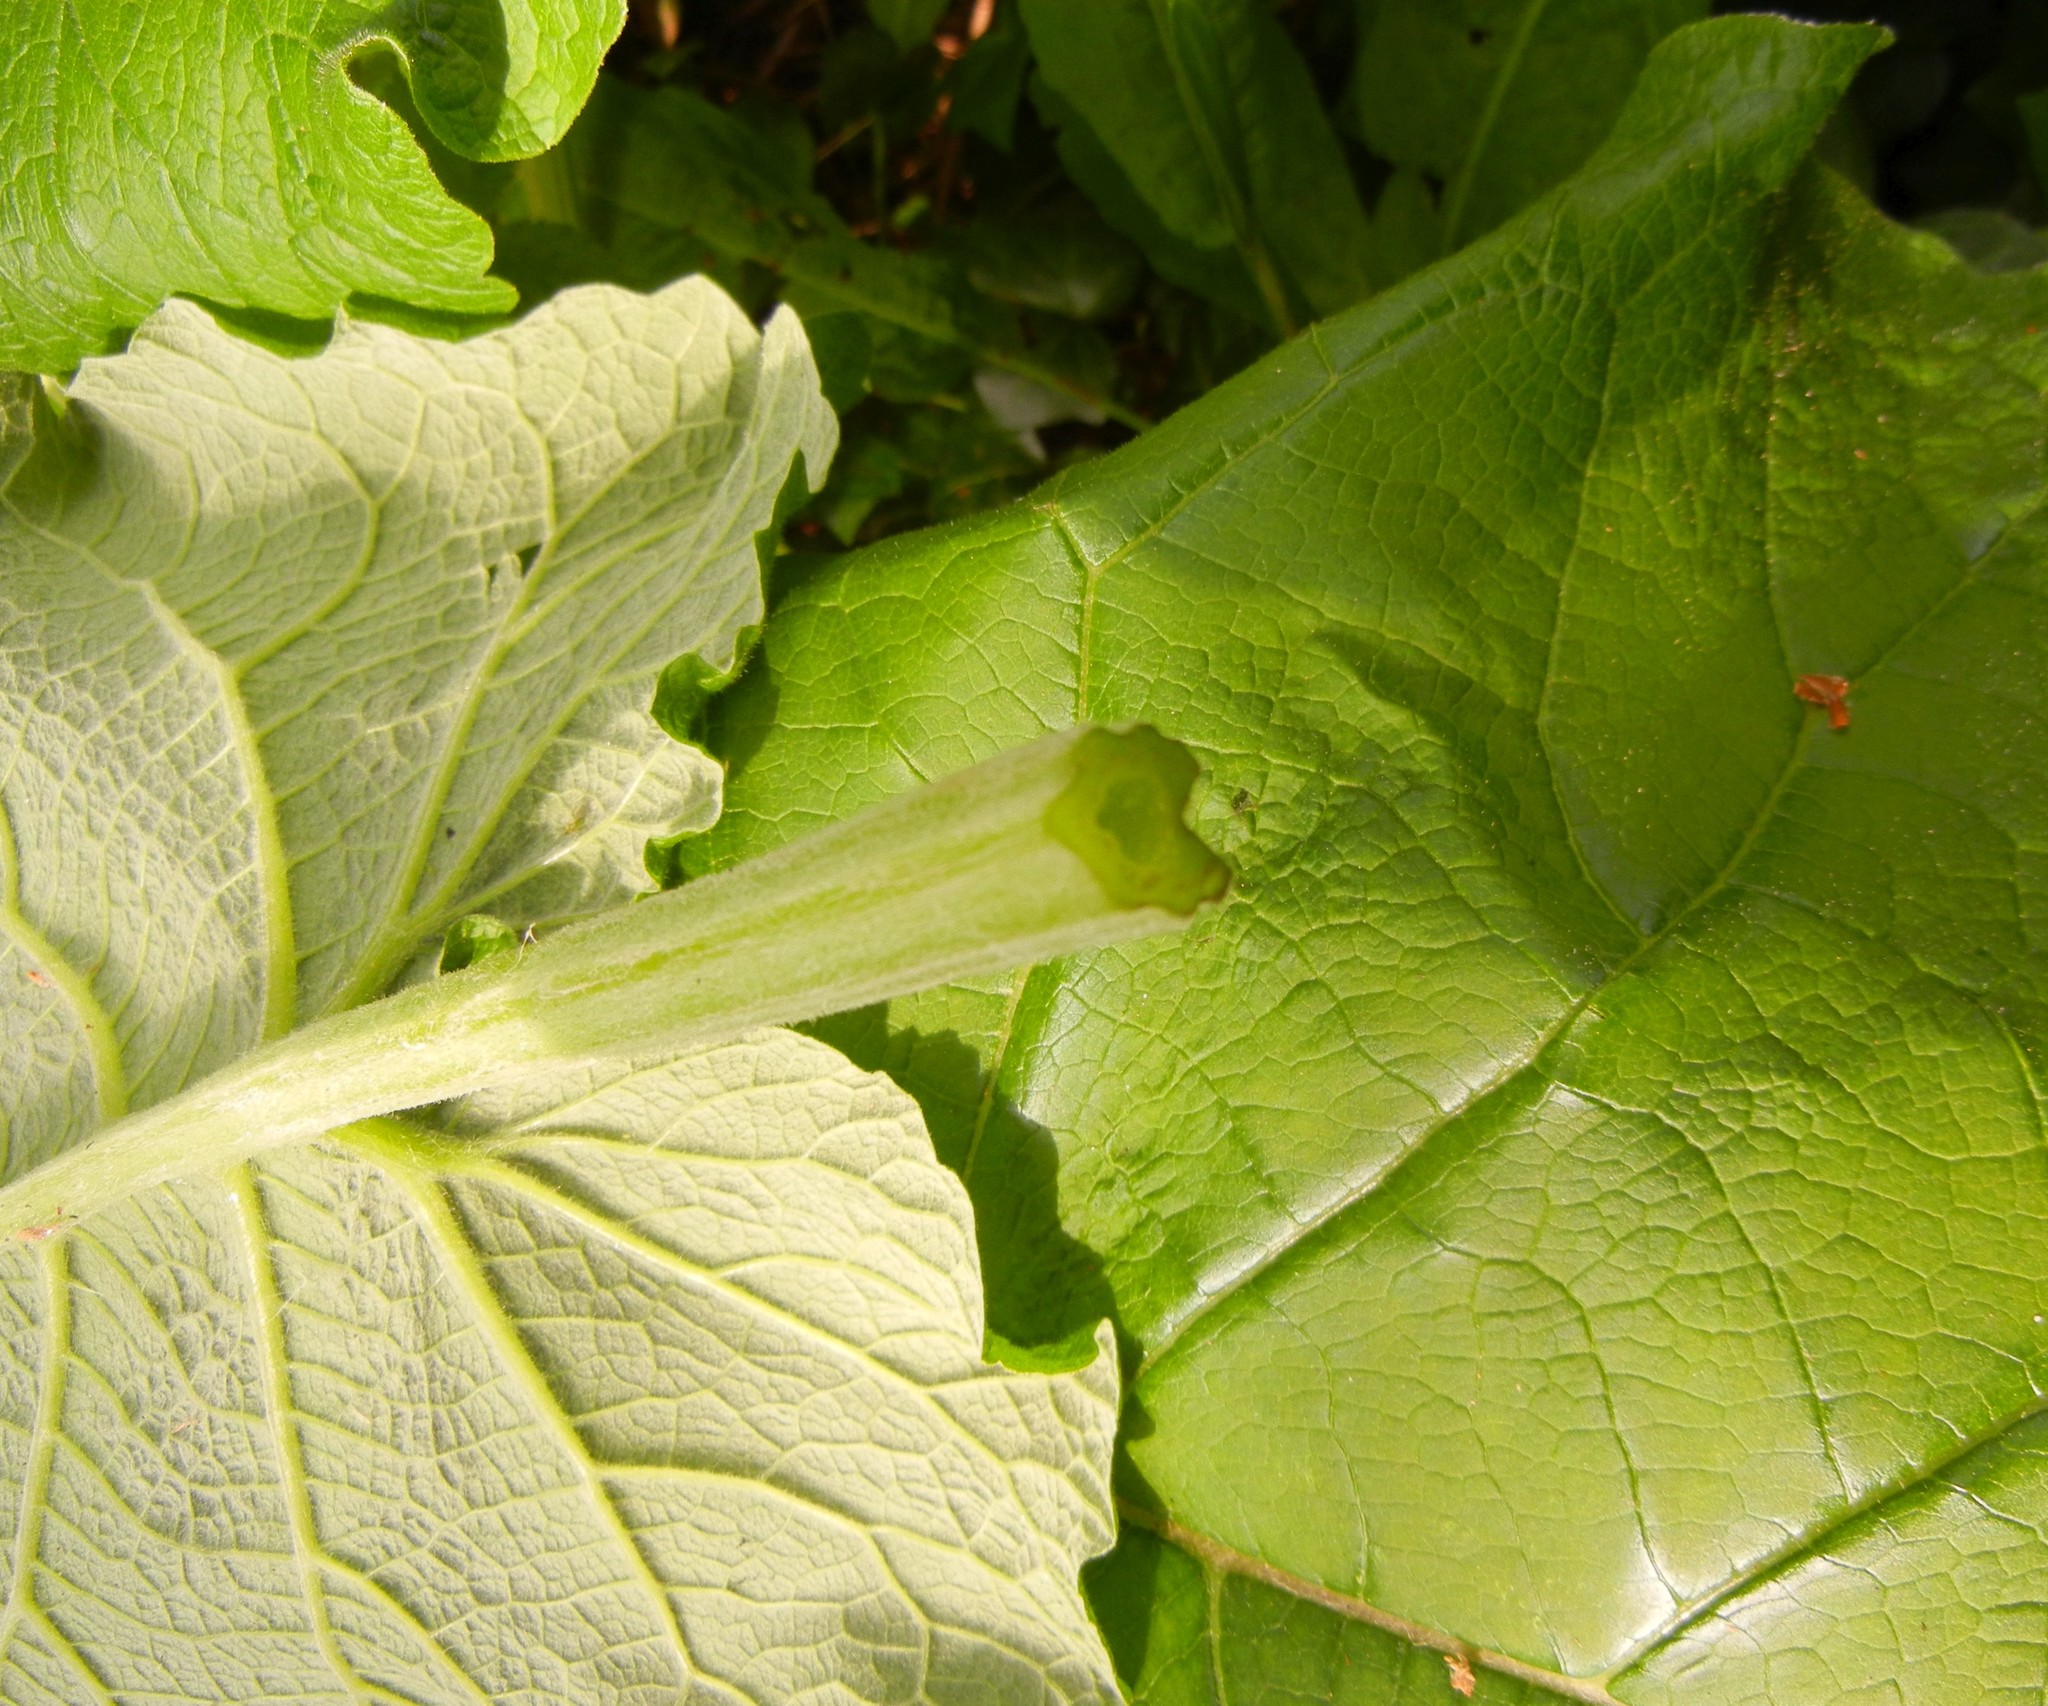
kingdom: Plantae
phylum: Tracheophyta
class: Magnoliopsida
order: Asterales
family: Asteraceae
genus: Arctium
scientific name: Arctium minus
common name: Lesser burdock
